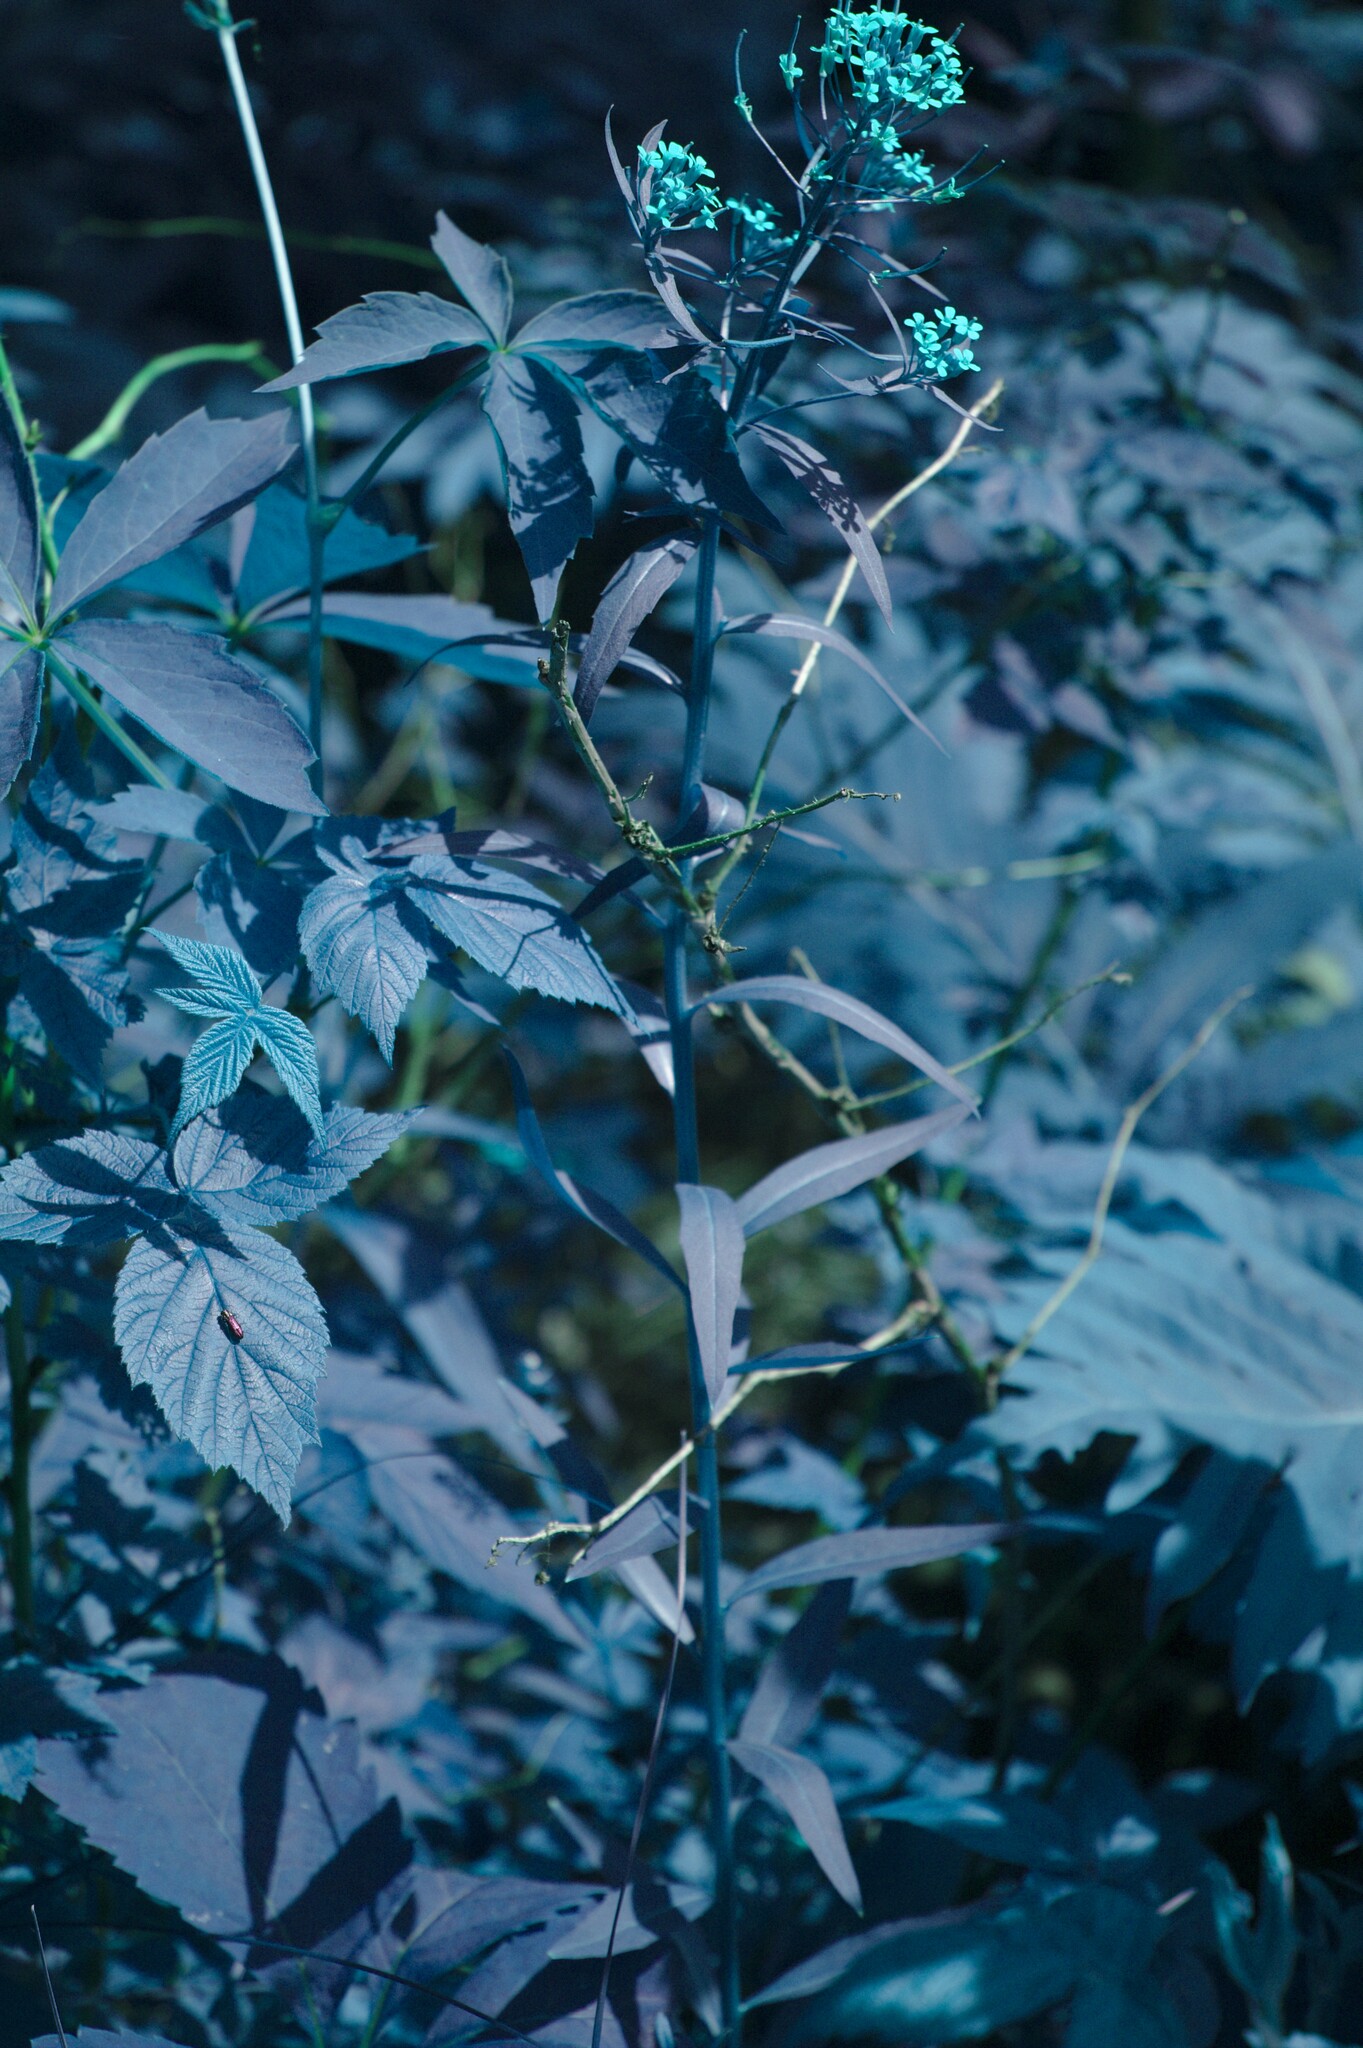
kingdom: Plantae
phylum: Tracheophyta
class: Magnoliopsida
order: Brassicales
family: Brassicaceae
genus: Erysimum
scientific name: Erysimum cheiranthoides
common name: Treacle mustard
